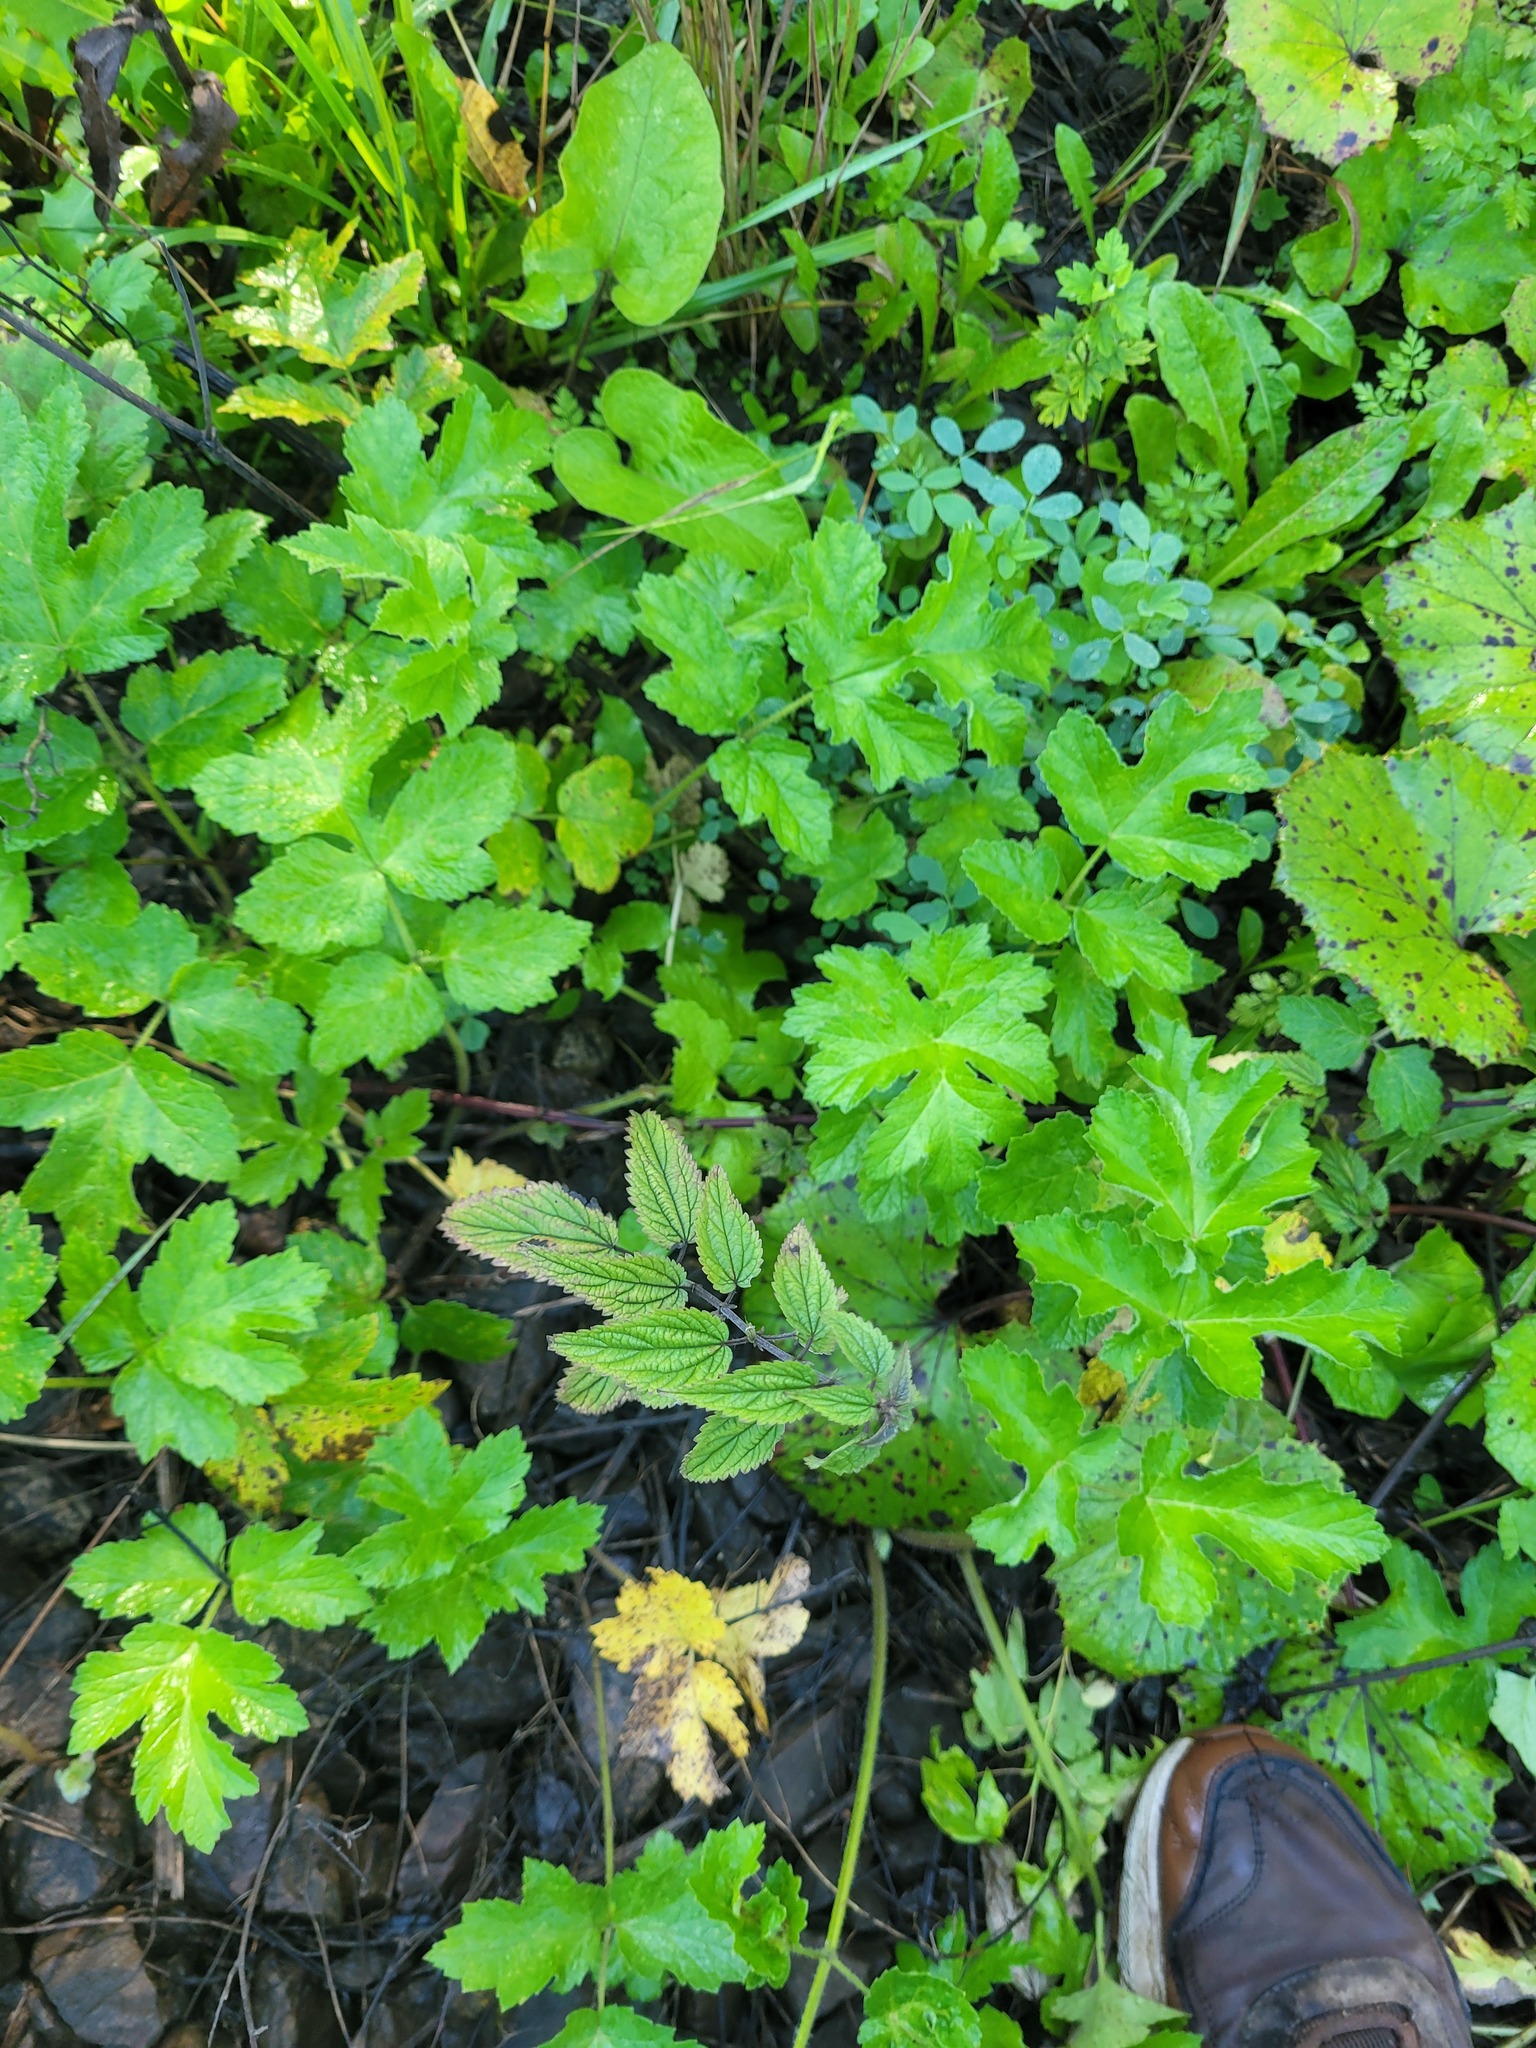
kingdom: Plantae
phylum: Tracheophyta
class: Magnoliopsida
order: Rosales
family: Urticaceae
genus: Urtica
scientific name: Urtica dioica
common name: Common nettle
